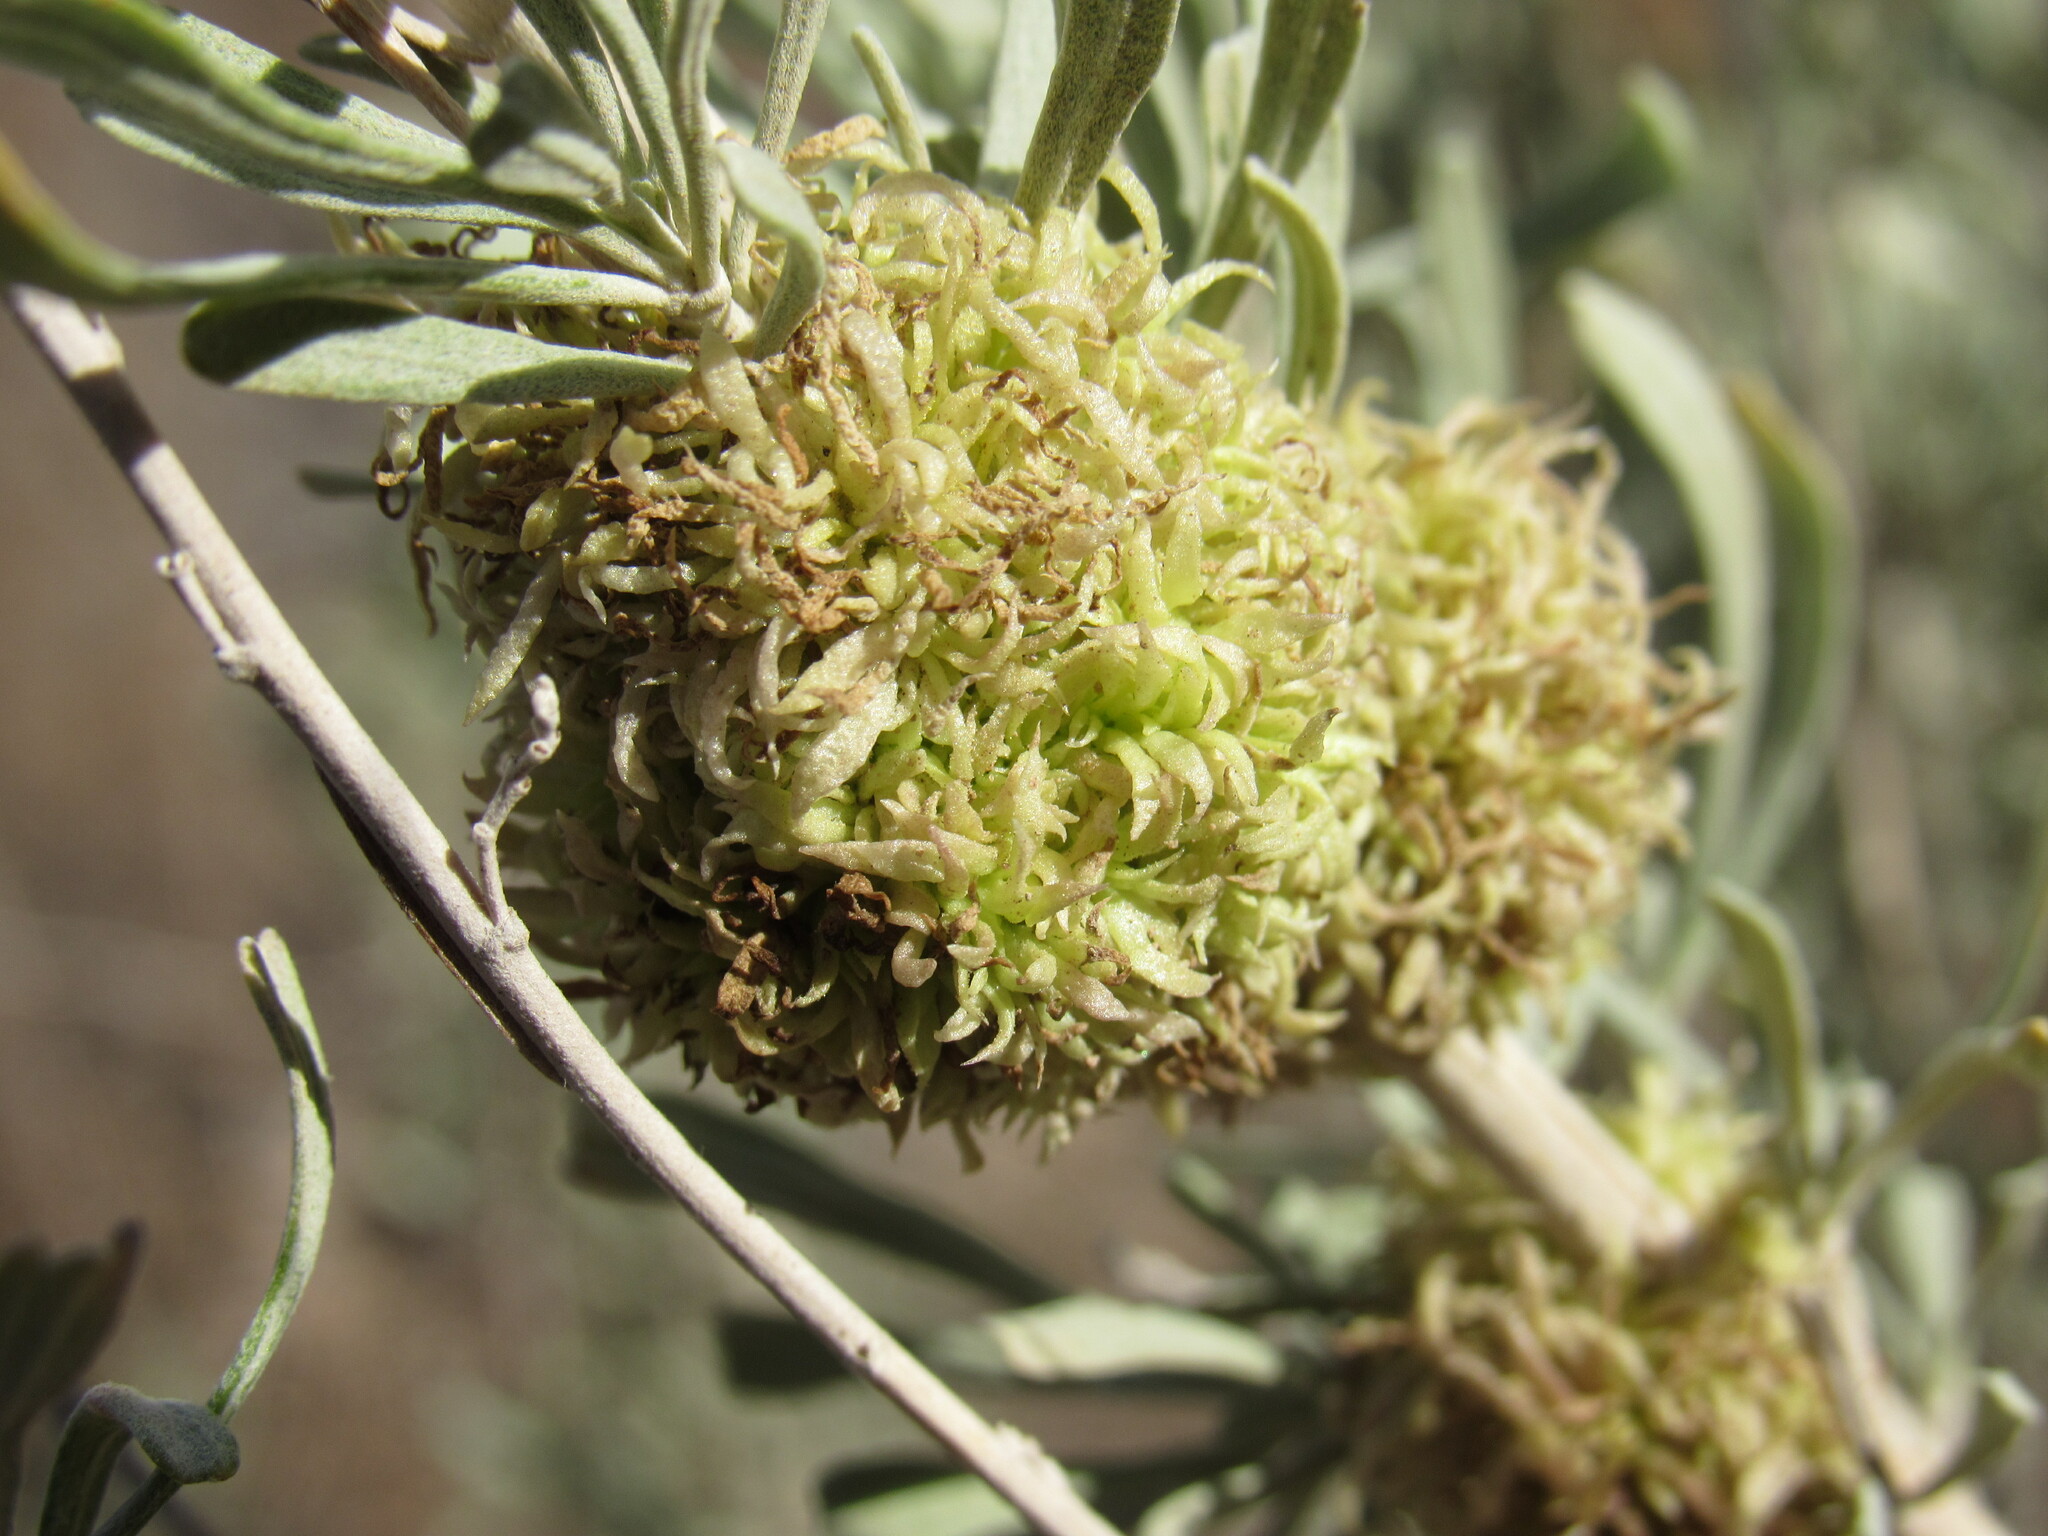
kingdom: Animalia
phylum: Arthropoda
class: Insecta
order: Diptera
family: Cecidomyiidae
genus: Rhopalomyia
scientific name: Rhopalomyia medusa
